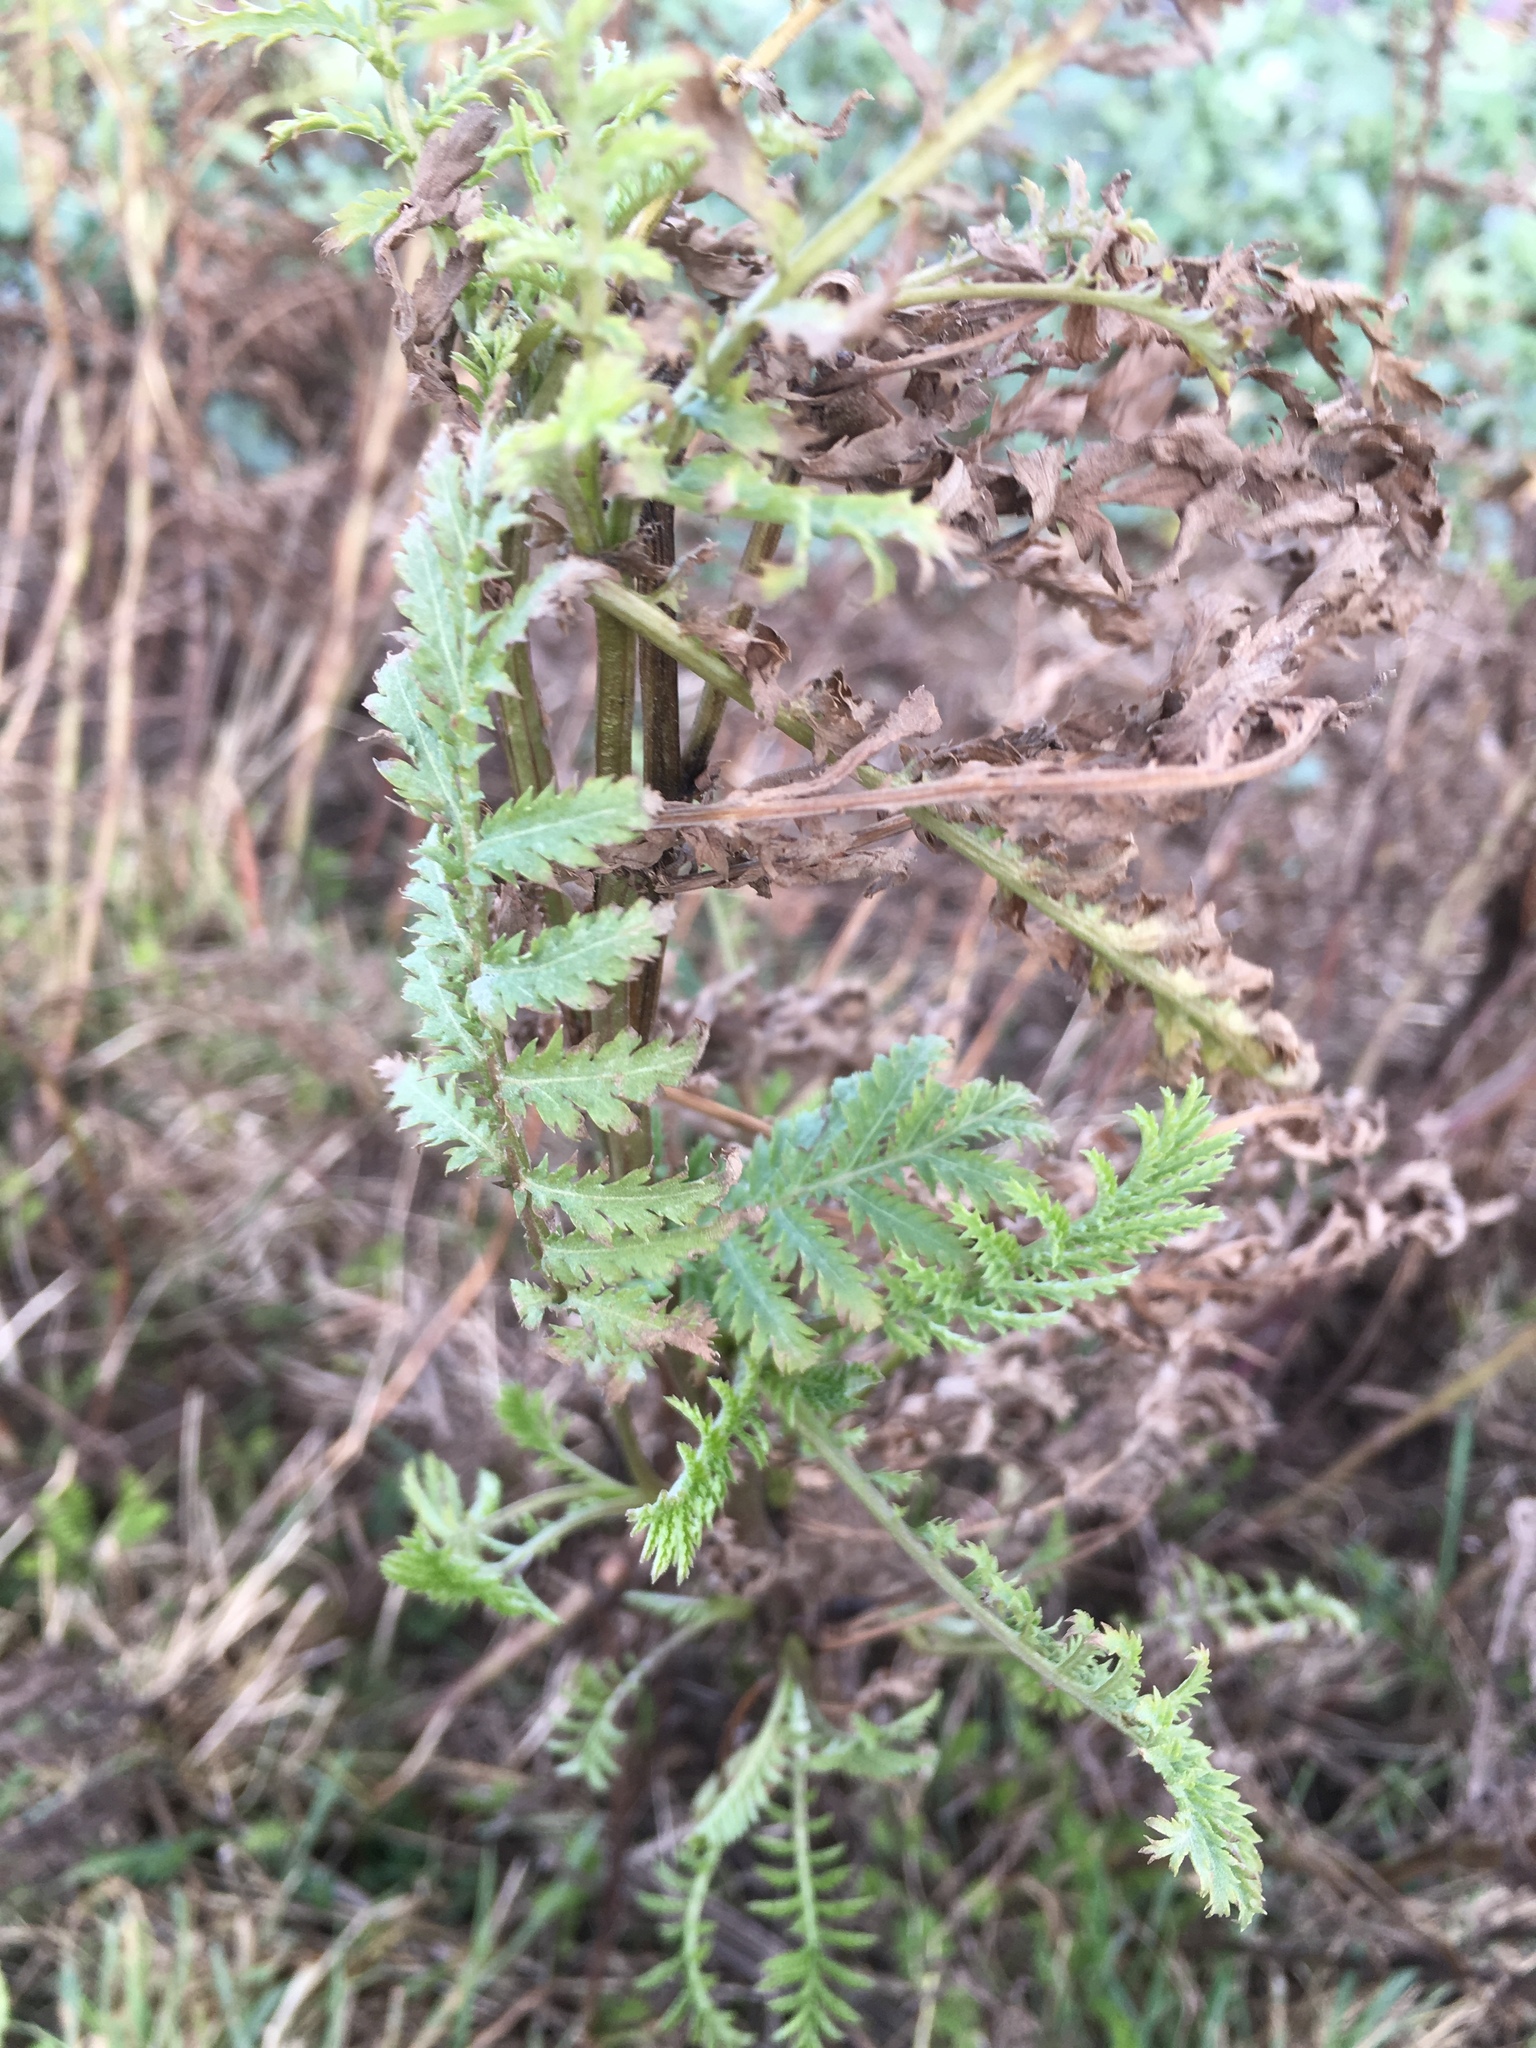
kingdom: Plantae
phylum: Tracheophyta
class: Magnoliopsida
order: Asterales
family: Asteraceae
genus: Tanacetum
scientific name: Tanacetum vulgare
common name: Common tansy
